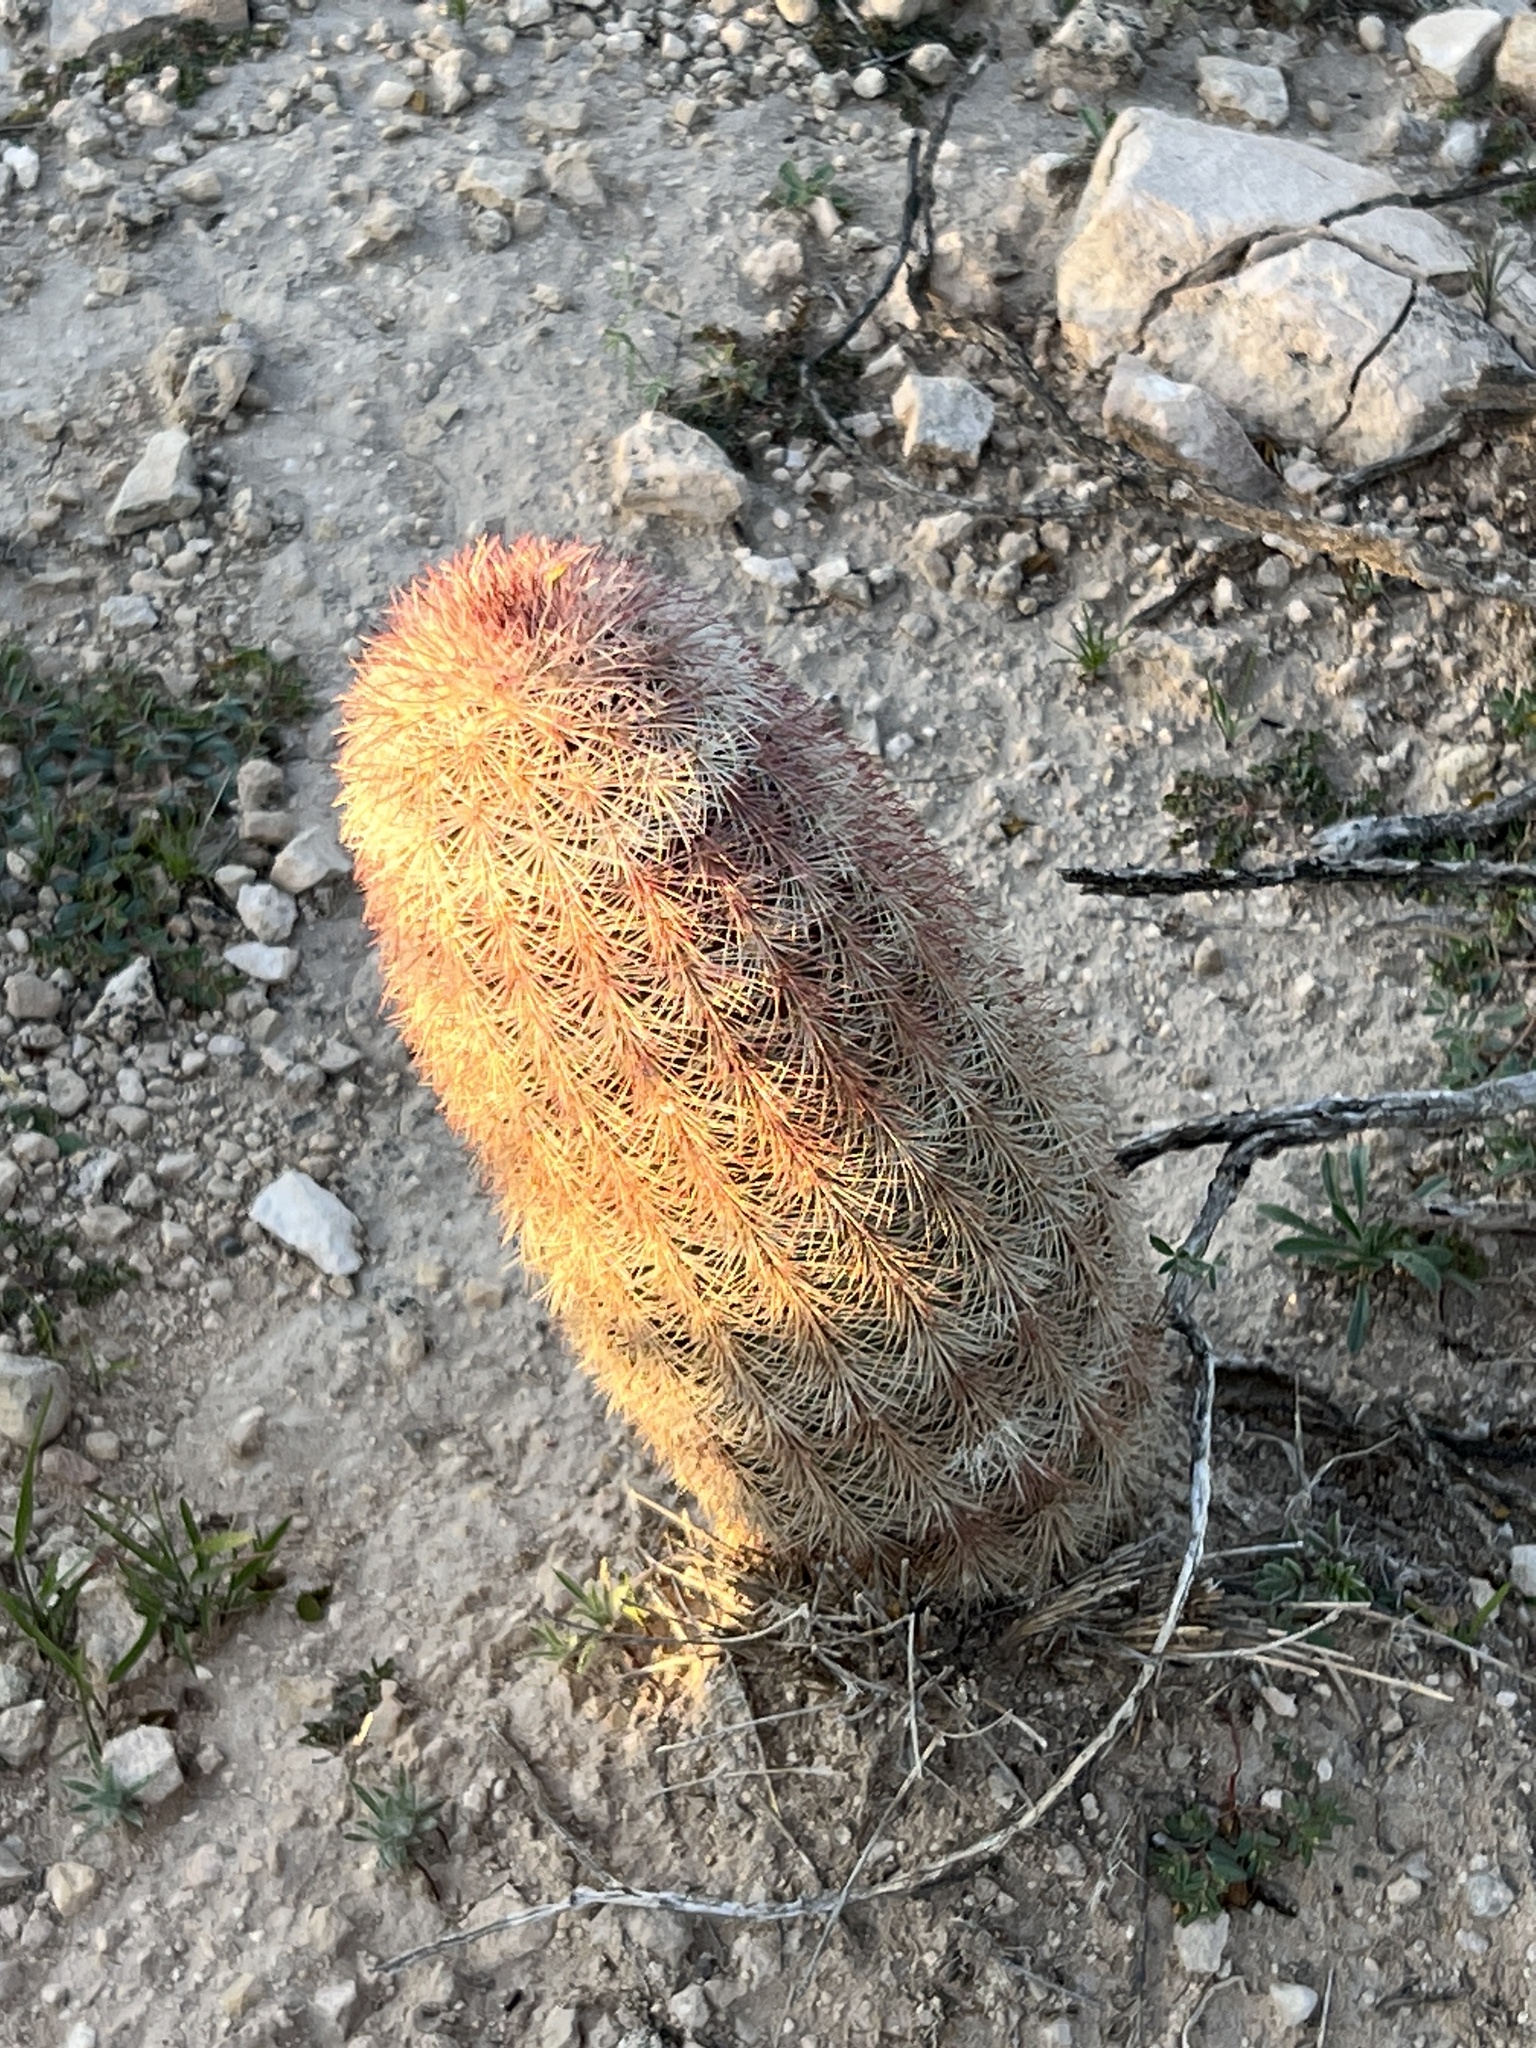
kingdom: Plantae
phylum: Tracheophyta
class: Magnoliopsida
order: Caryophyllales
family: Cactaceae
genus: Echinocereus
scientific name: Echinocereus dasyacanthus
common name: Spiny hedgehog cactus
